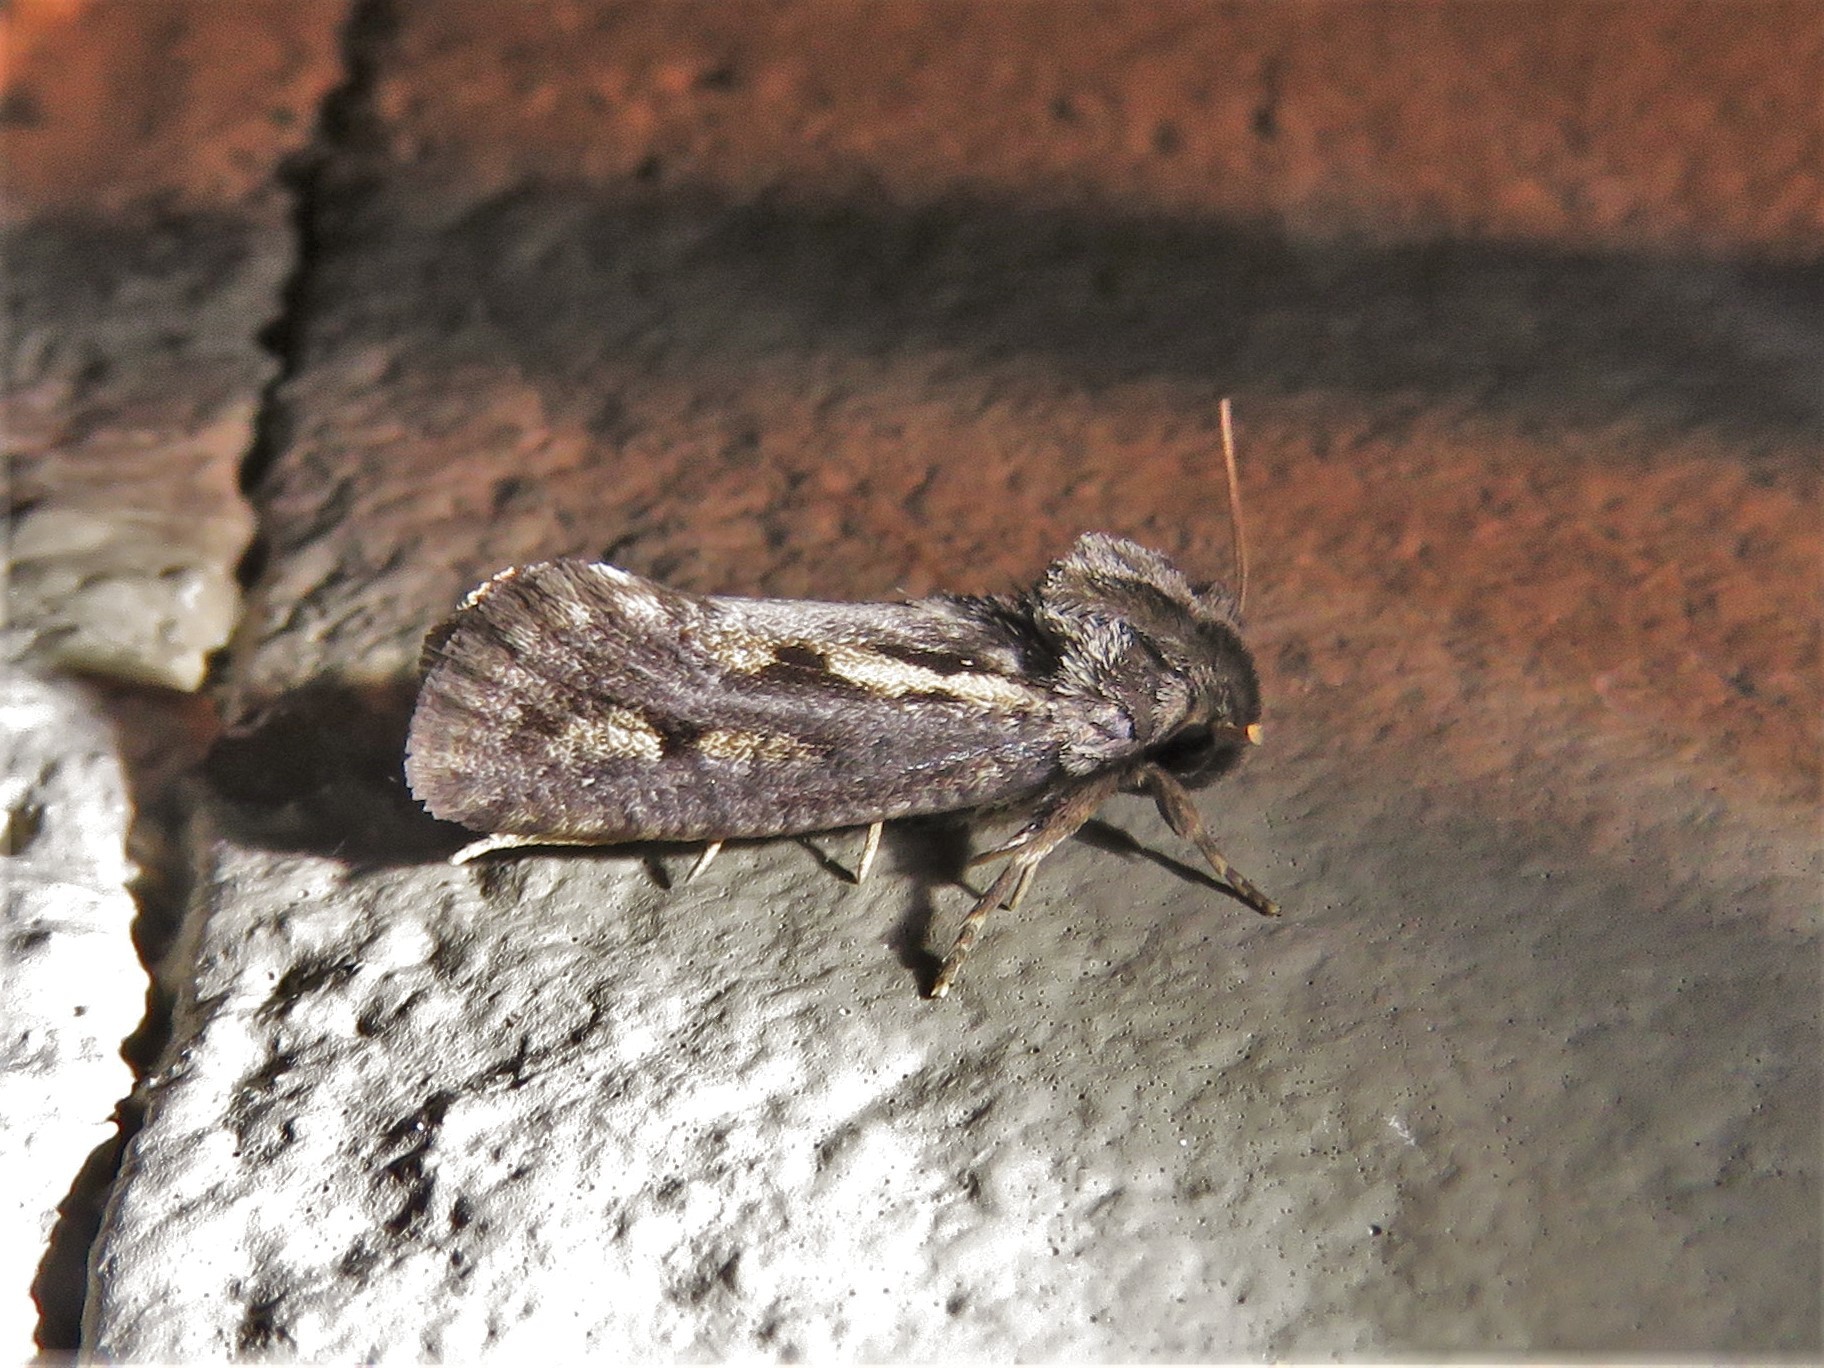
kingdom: Animalia
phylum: Arthropoda
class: Insecta
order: Lepidoptera
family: Tineidae
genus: Acrolophus
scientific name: Acrolophus popeanella
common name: Clemens' grass tubeworm moth
